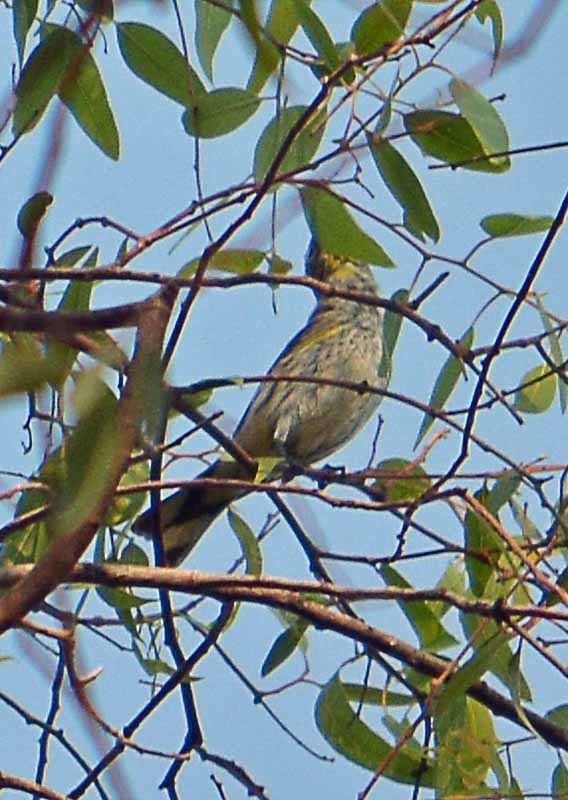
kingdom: Animalia
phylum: Chordata
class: Aves
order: Passeriformes
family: Parulidae
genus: Setophaga
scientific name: Setophaga coronata
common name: Myrtle warbler
